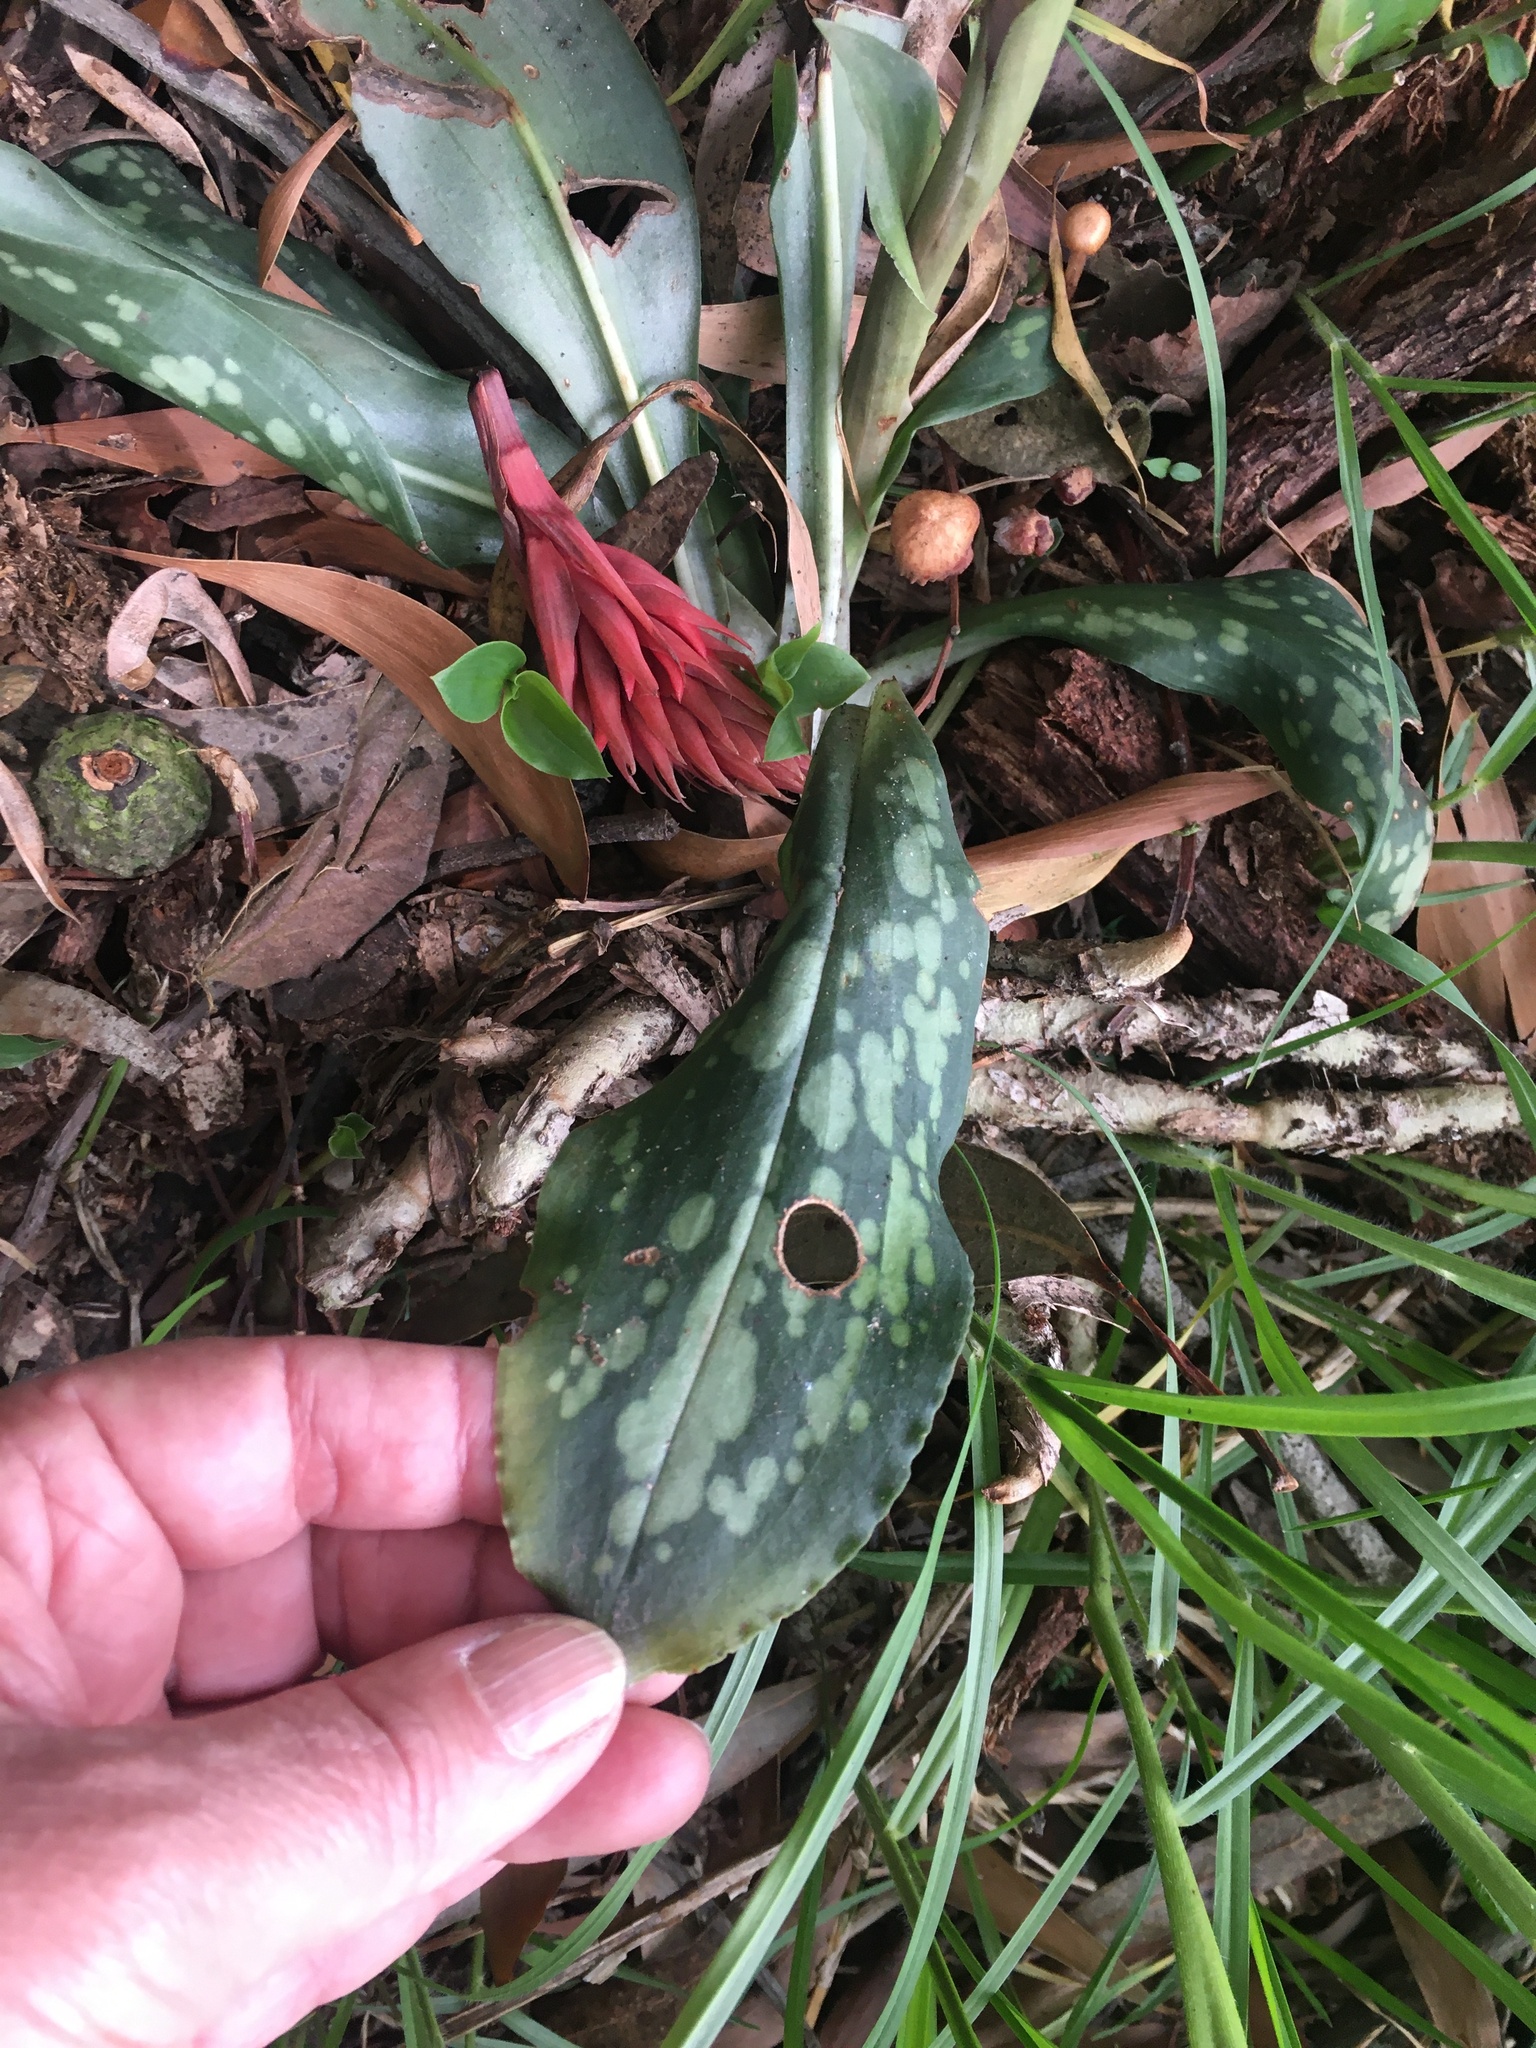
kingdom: Plantae
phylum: Tracheophyta
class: Liliopsida
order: Asparagales
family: Orchidaceae
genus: Stenorrhynchos
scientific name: Stenorrhynchos albidomaculatum
